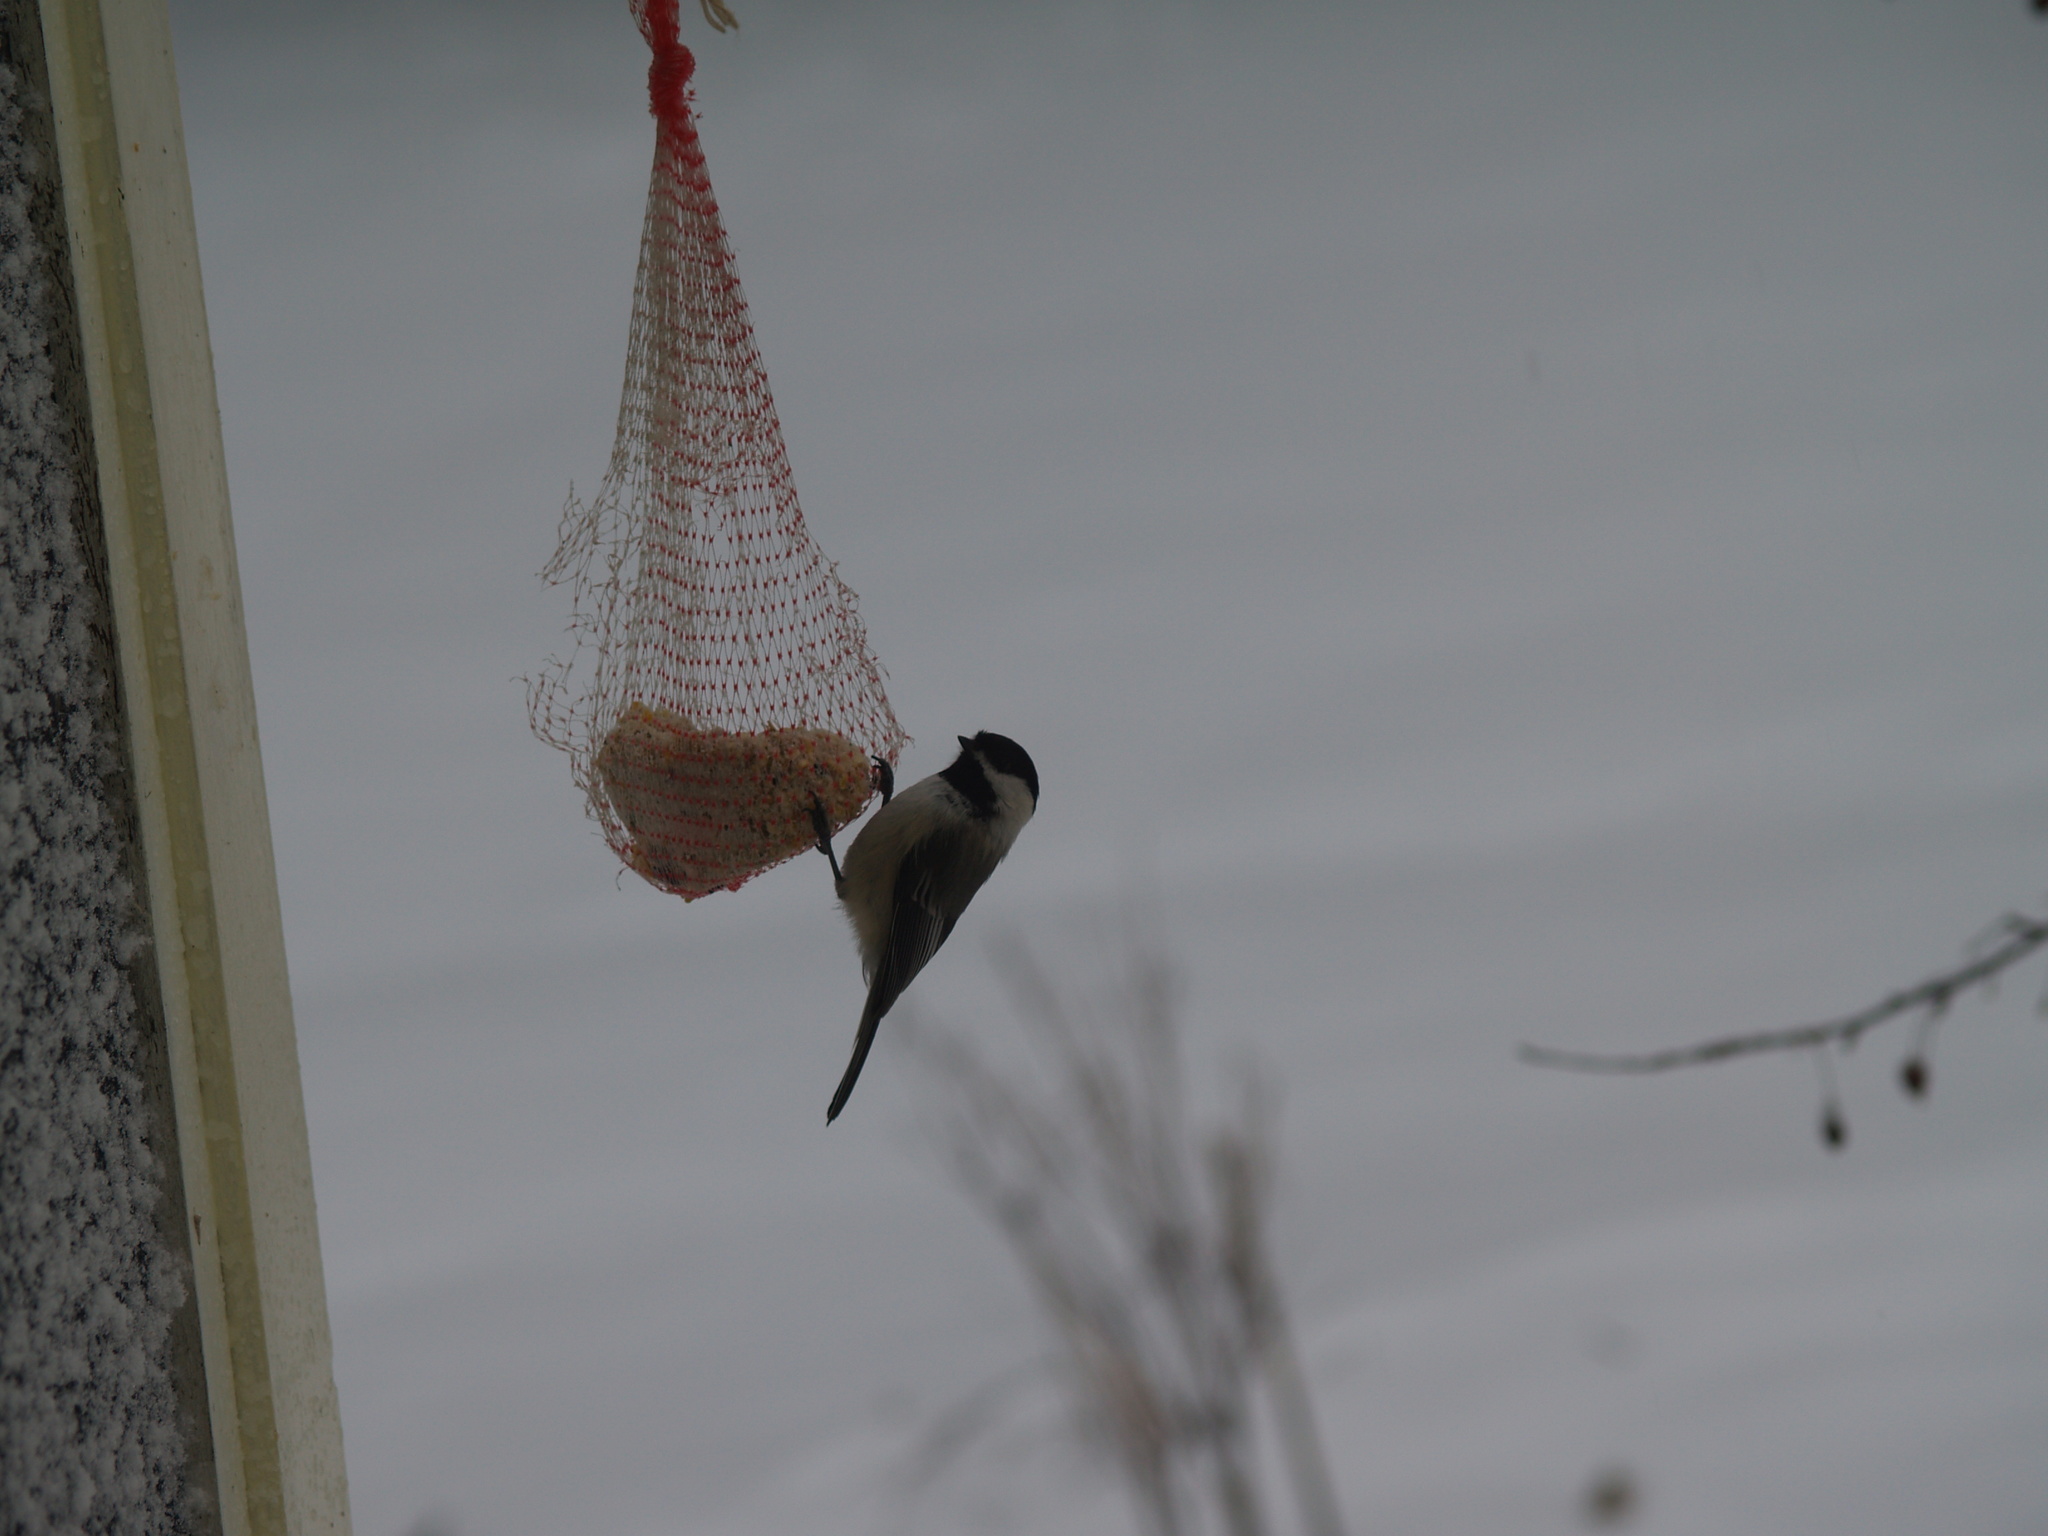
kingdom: Animalia
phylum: Chordata
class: Aves
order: Passeriformes
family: Paridae
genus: Poecile
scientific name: Poecile atricapillus
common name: Black-capped chickadee
